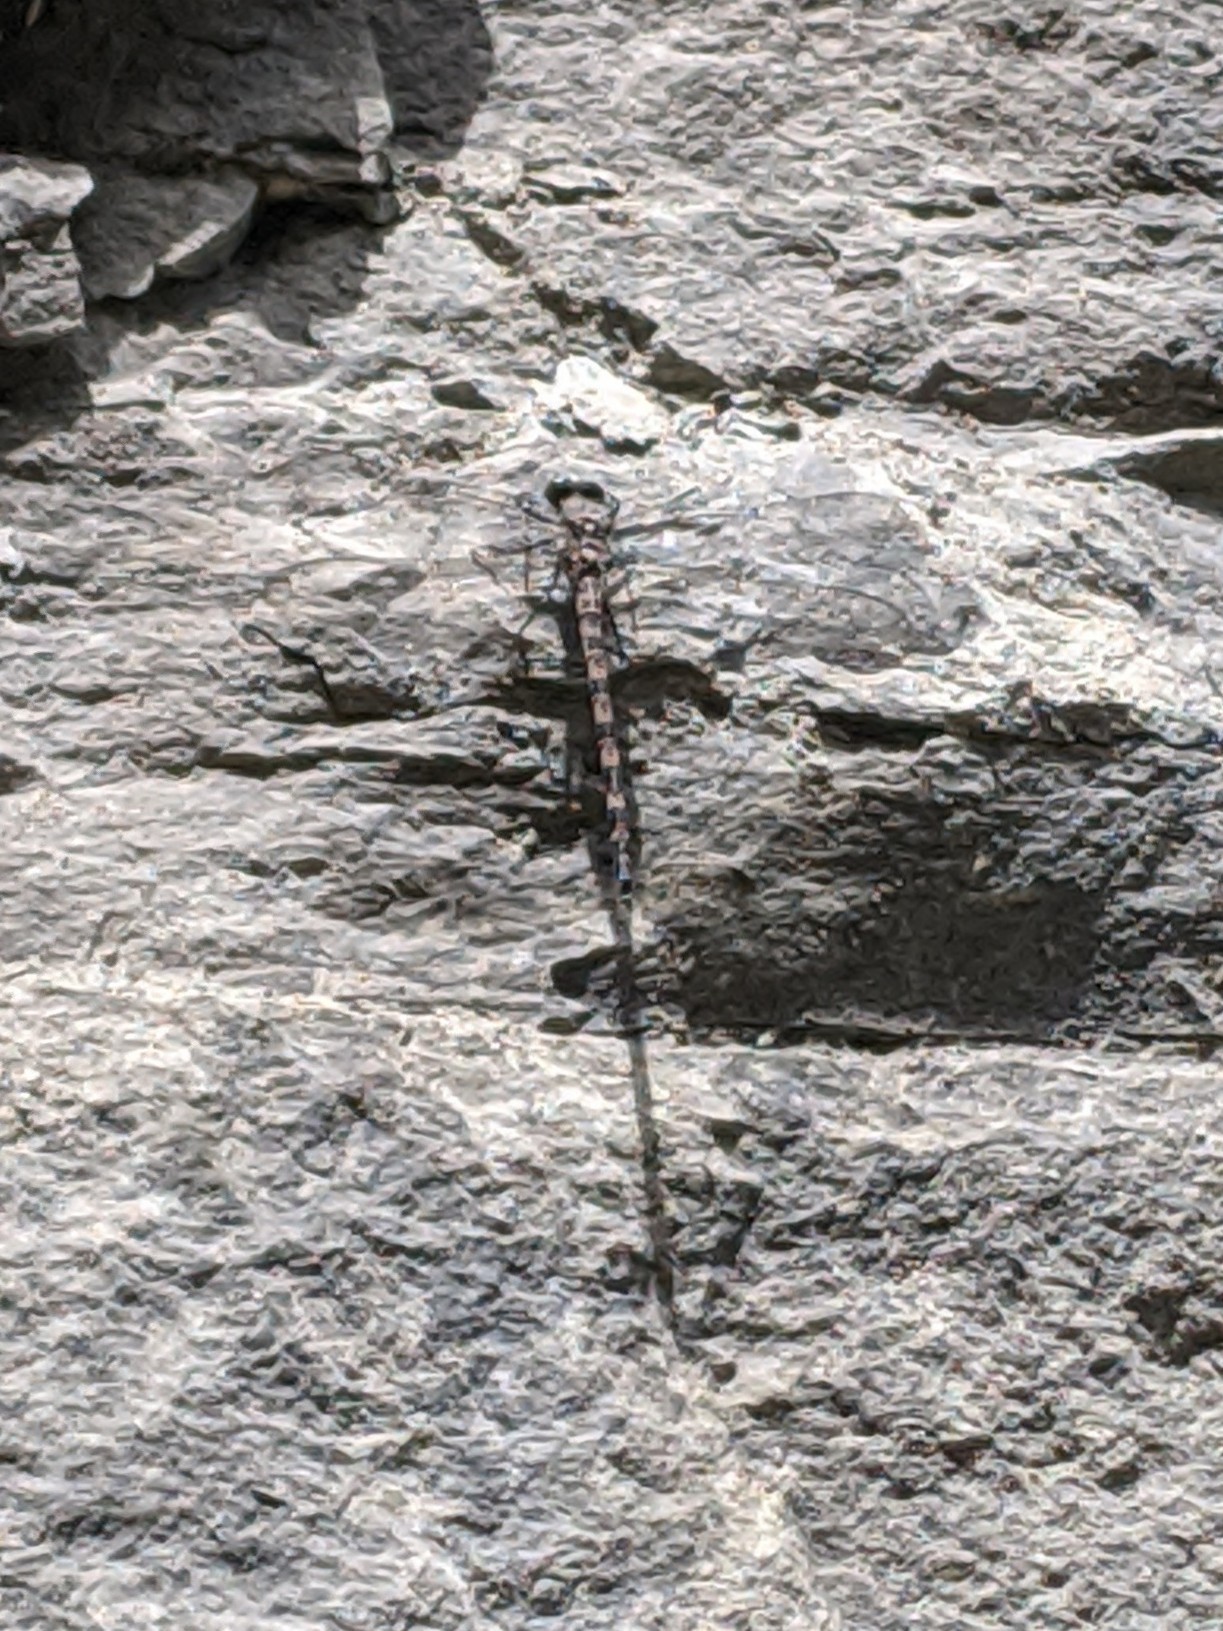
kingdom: Animalia
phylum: Arthropoda
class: Insecta
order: Odonata
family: Petaluridae
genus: Tachopteryx
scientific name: Tachopteryx thoreyi
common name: Gray petaltail
